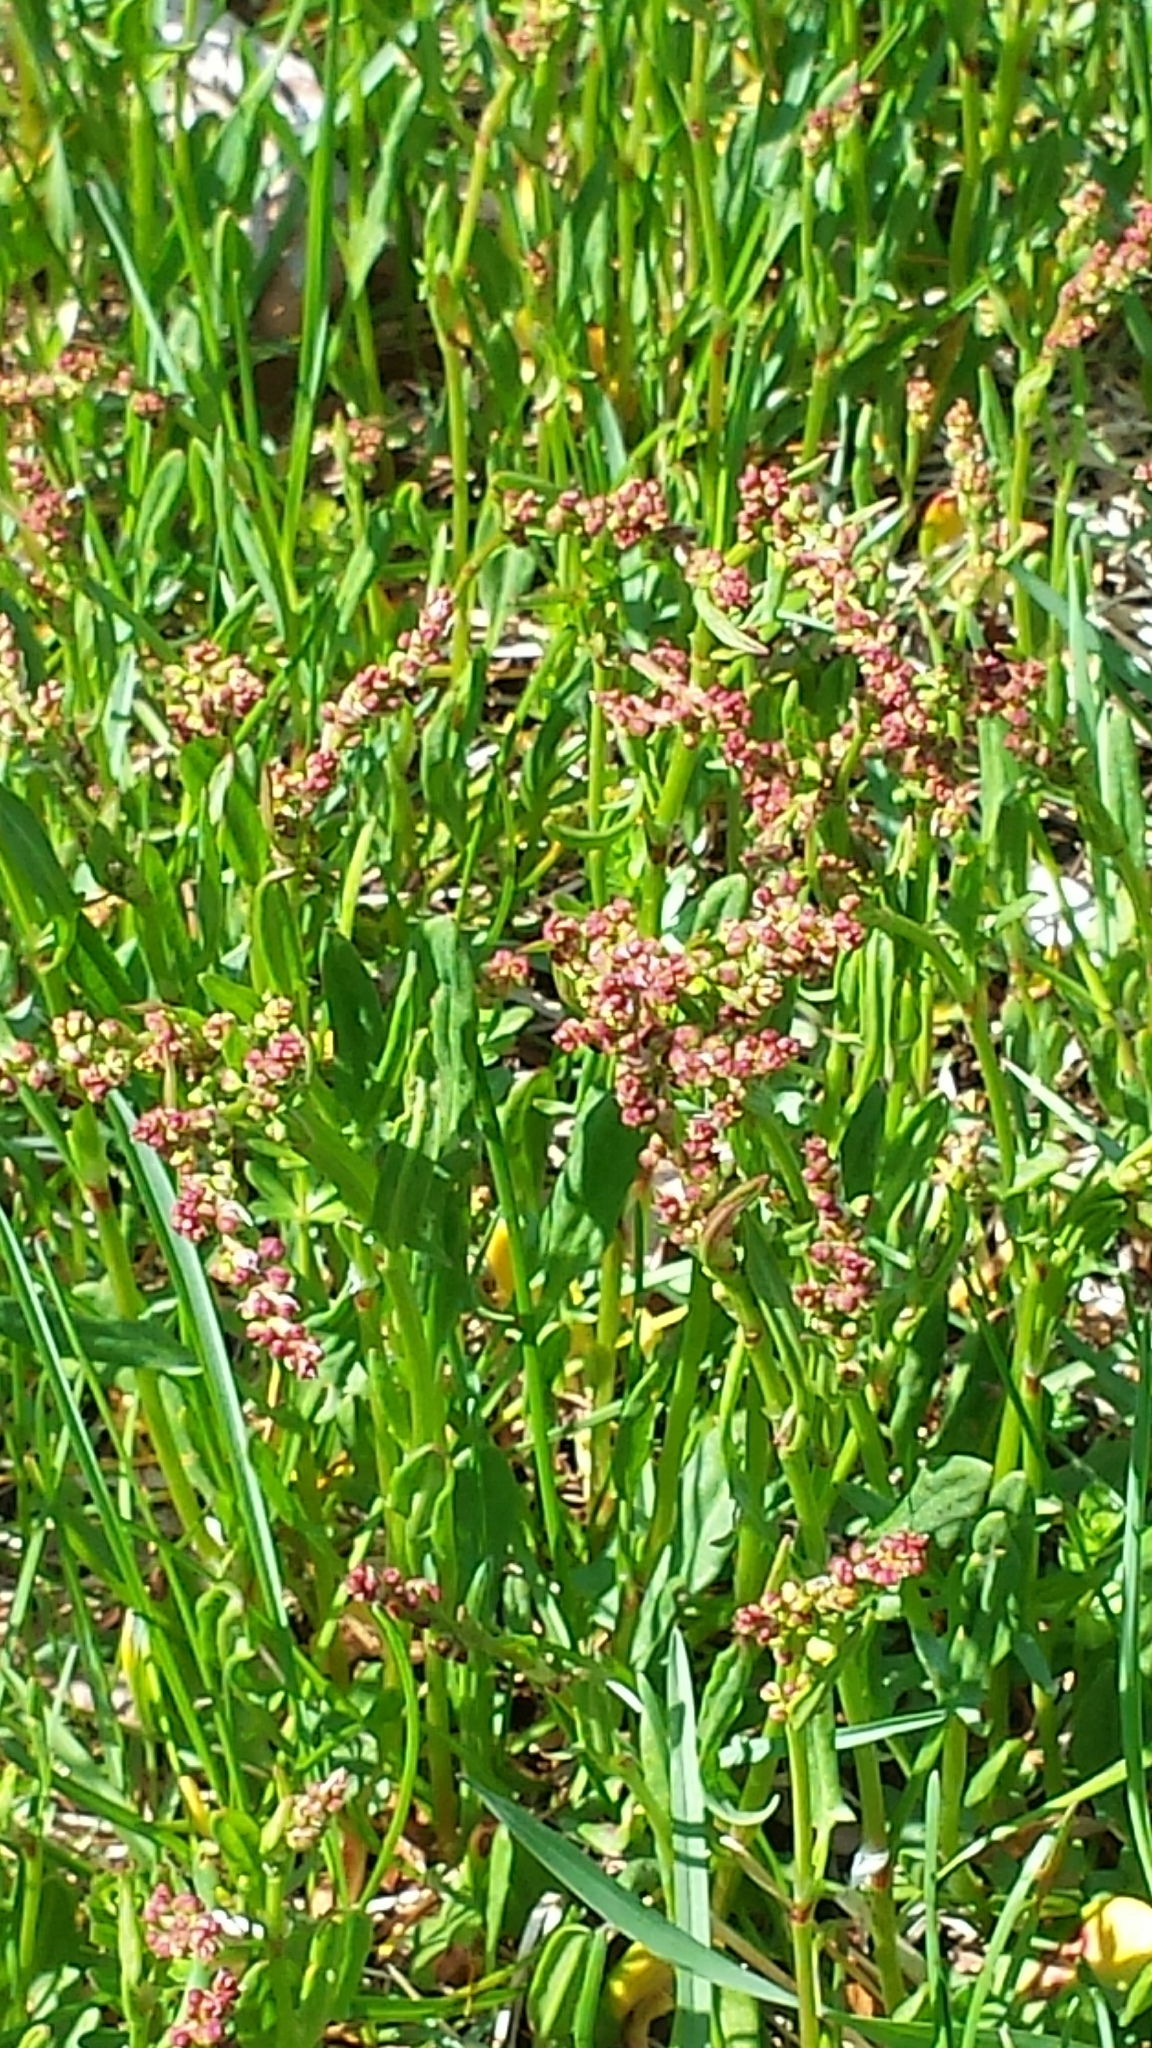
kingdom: Plantae
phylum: Tracheophyta
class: Magnoliopsida
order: Caryophyllales
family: Polygonaceae
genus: Rumex
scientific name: Rumex acetosella
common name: Common sheep sorrel
